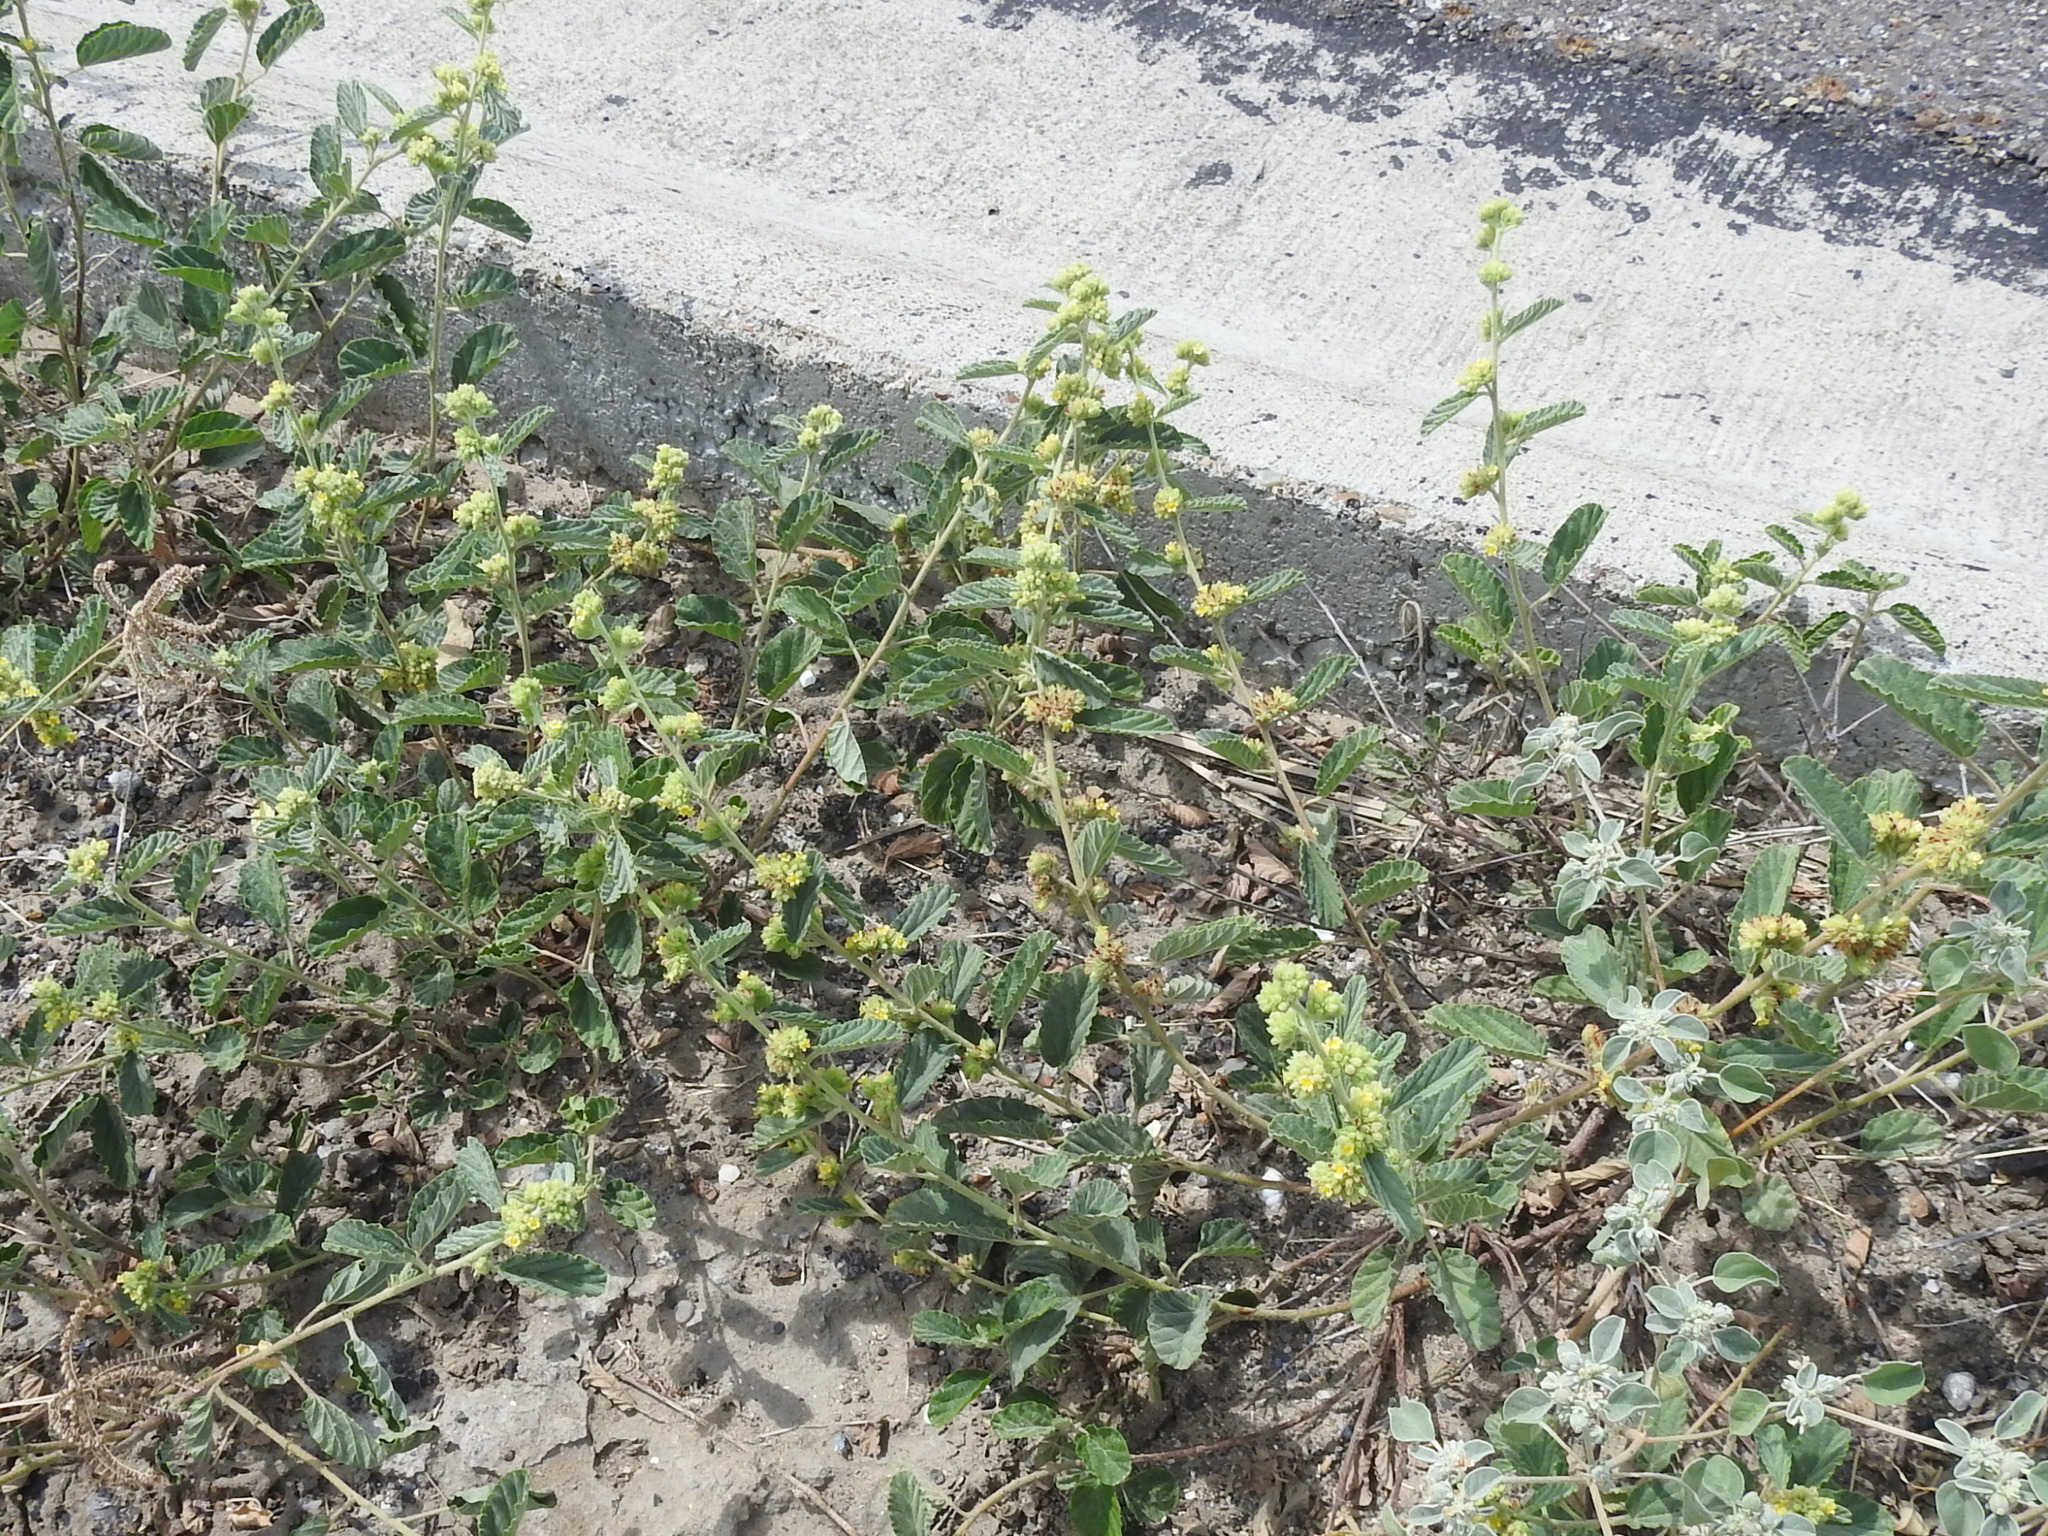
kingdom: Plantae
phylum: Tracheophyta
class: Magnoliopsida
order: Malvales
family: Malvaceae
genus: Waltheria
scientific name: Waltheria indica
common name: Leather-coat
